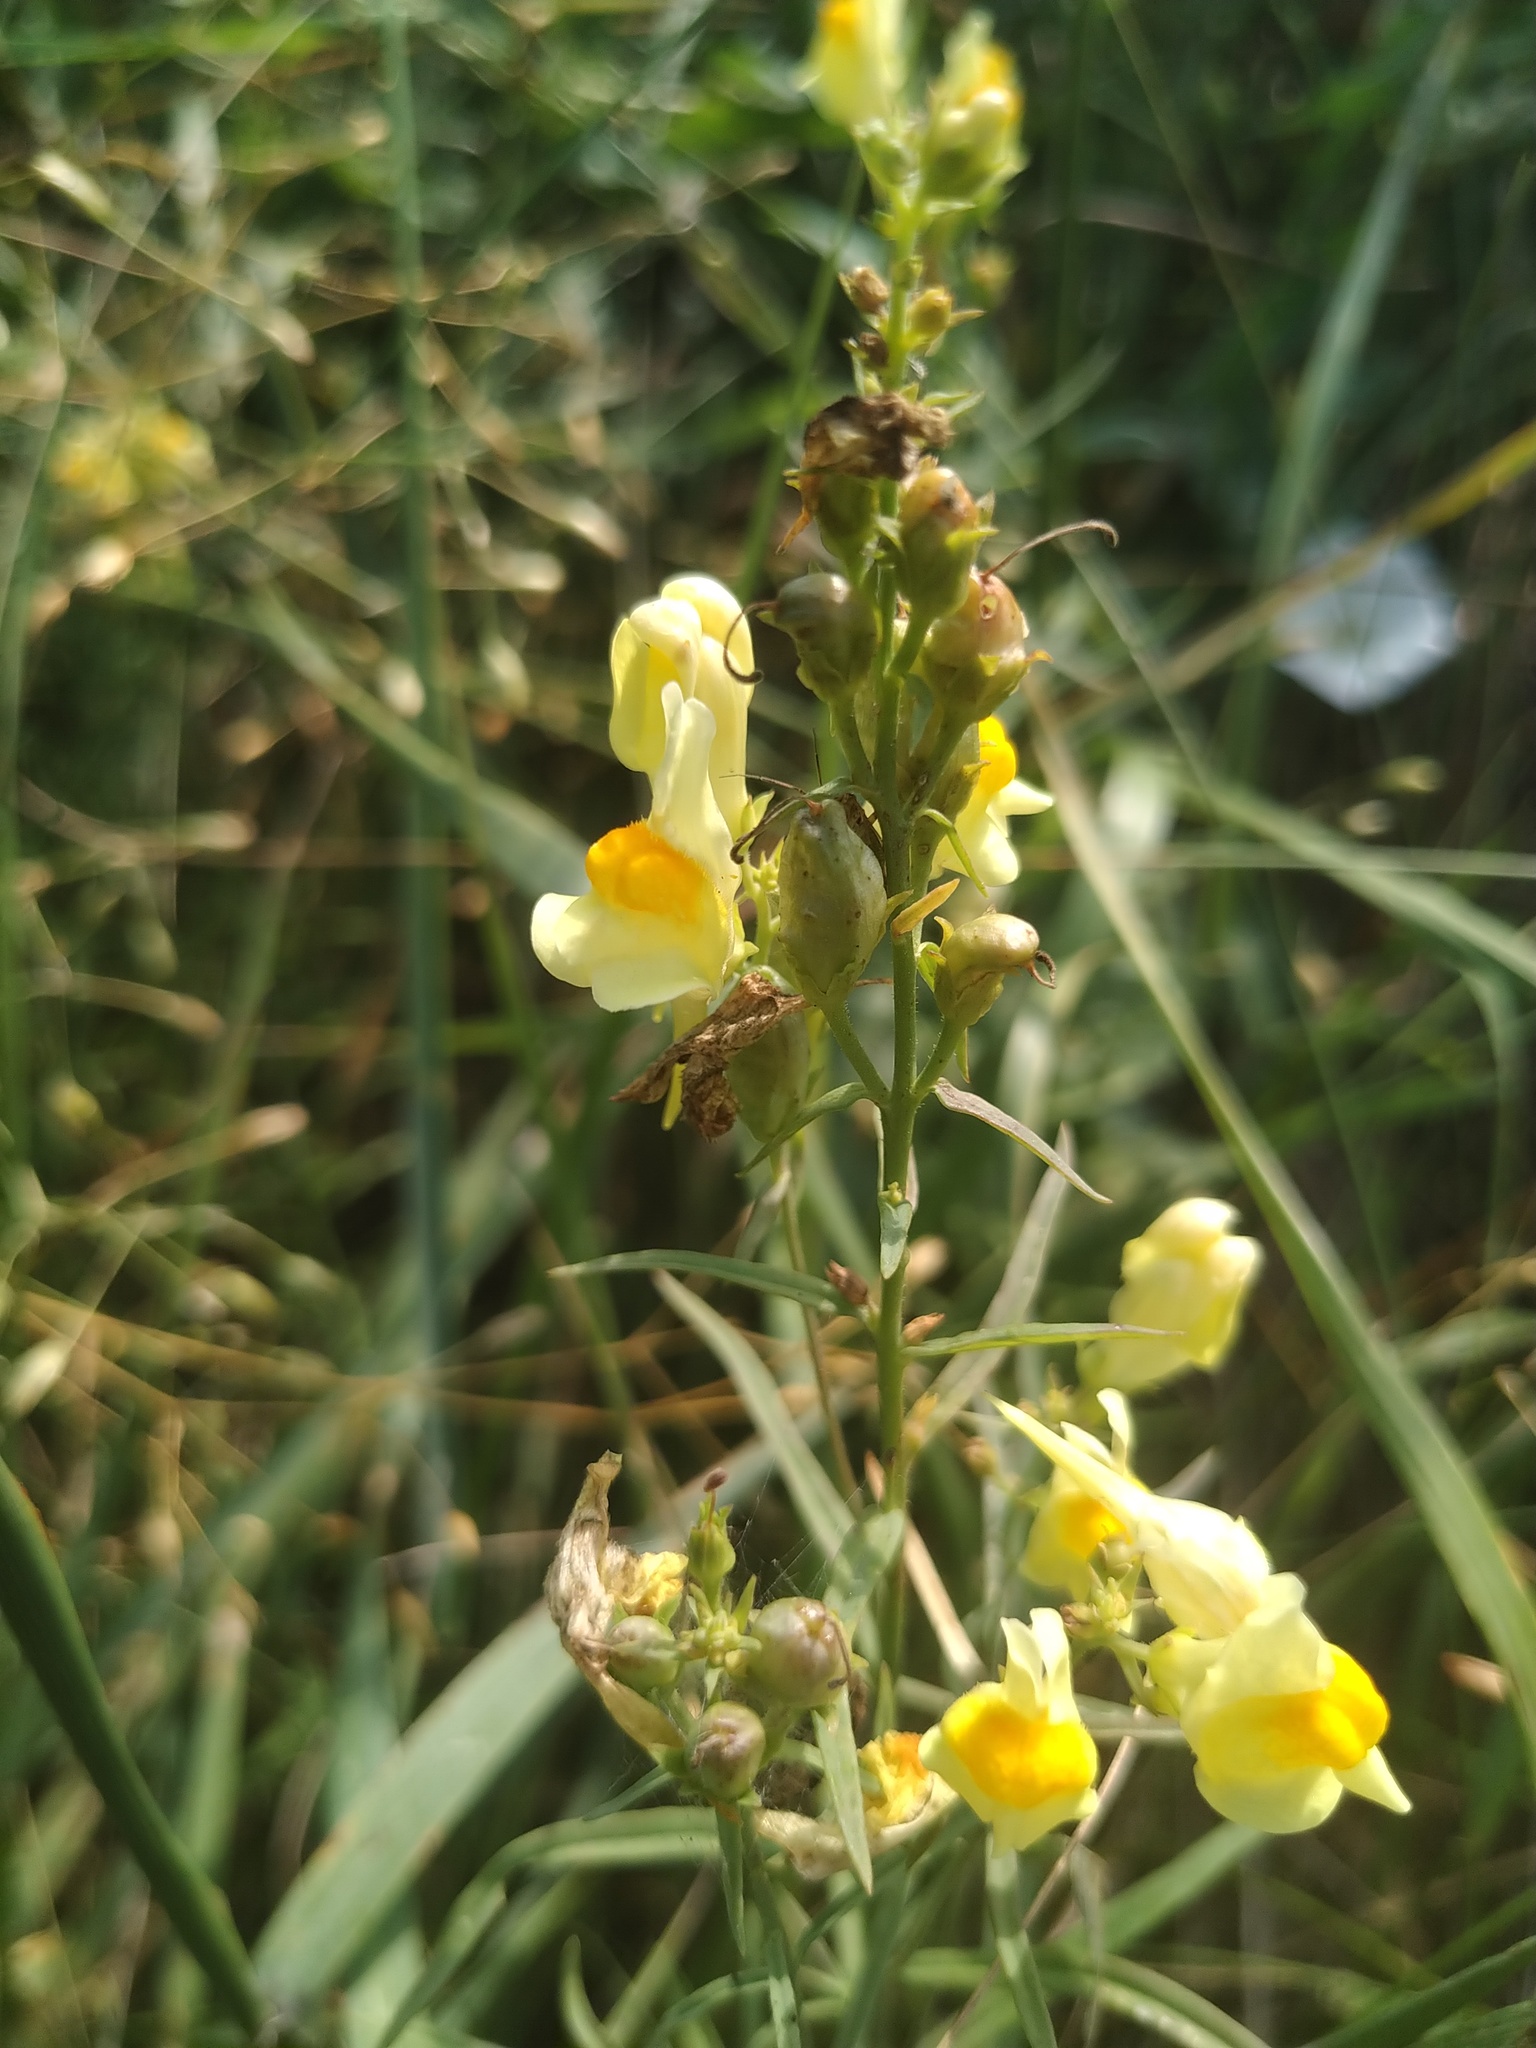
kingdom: Plantae
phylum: Tracheophyta
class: Magnoliopsida
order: Lamiales
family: Plantaginaceae
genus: Linaria
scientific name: Linaria vulgaris
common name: Butter and eggs
